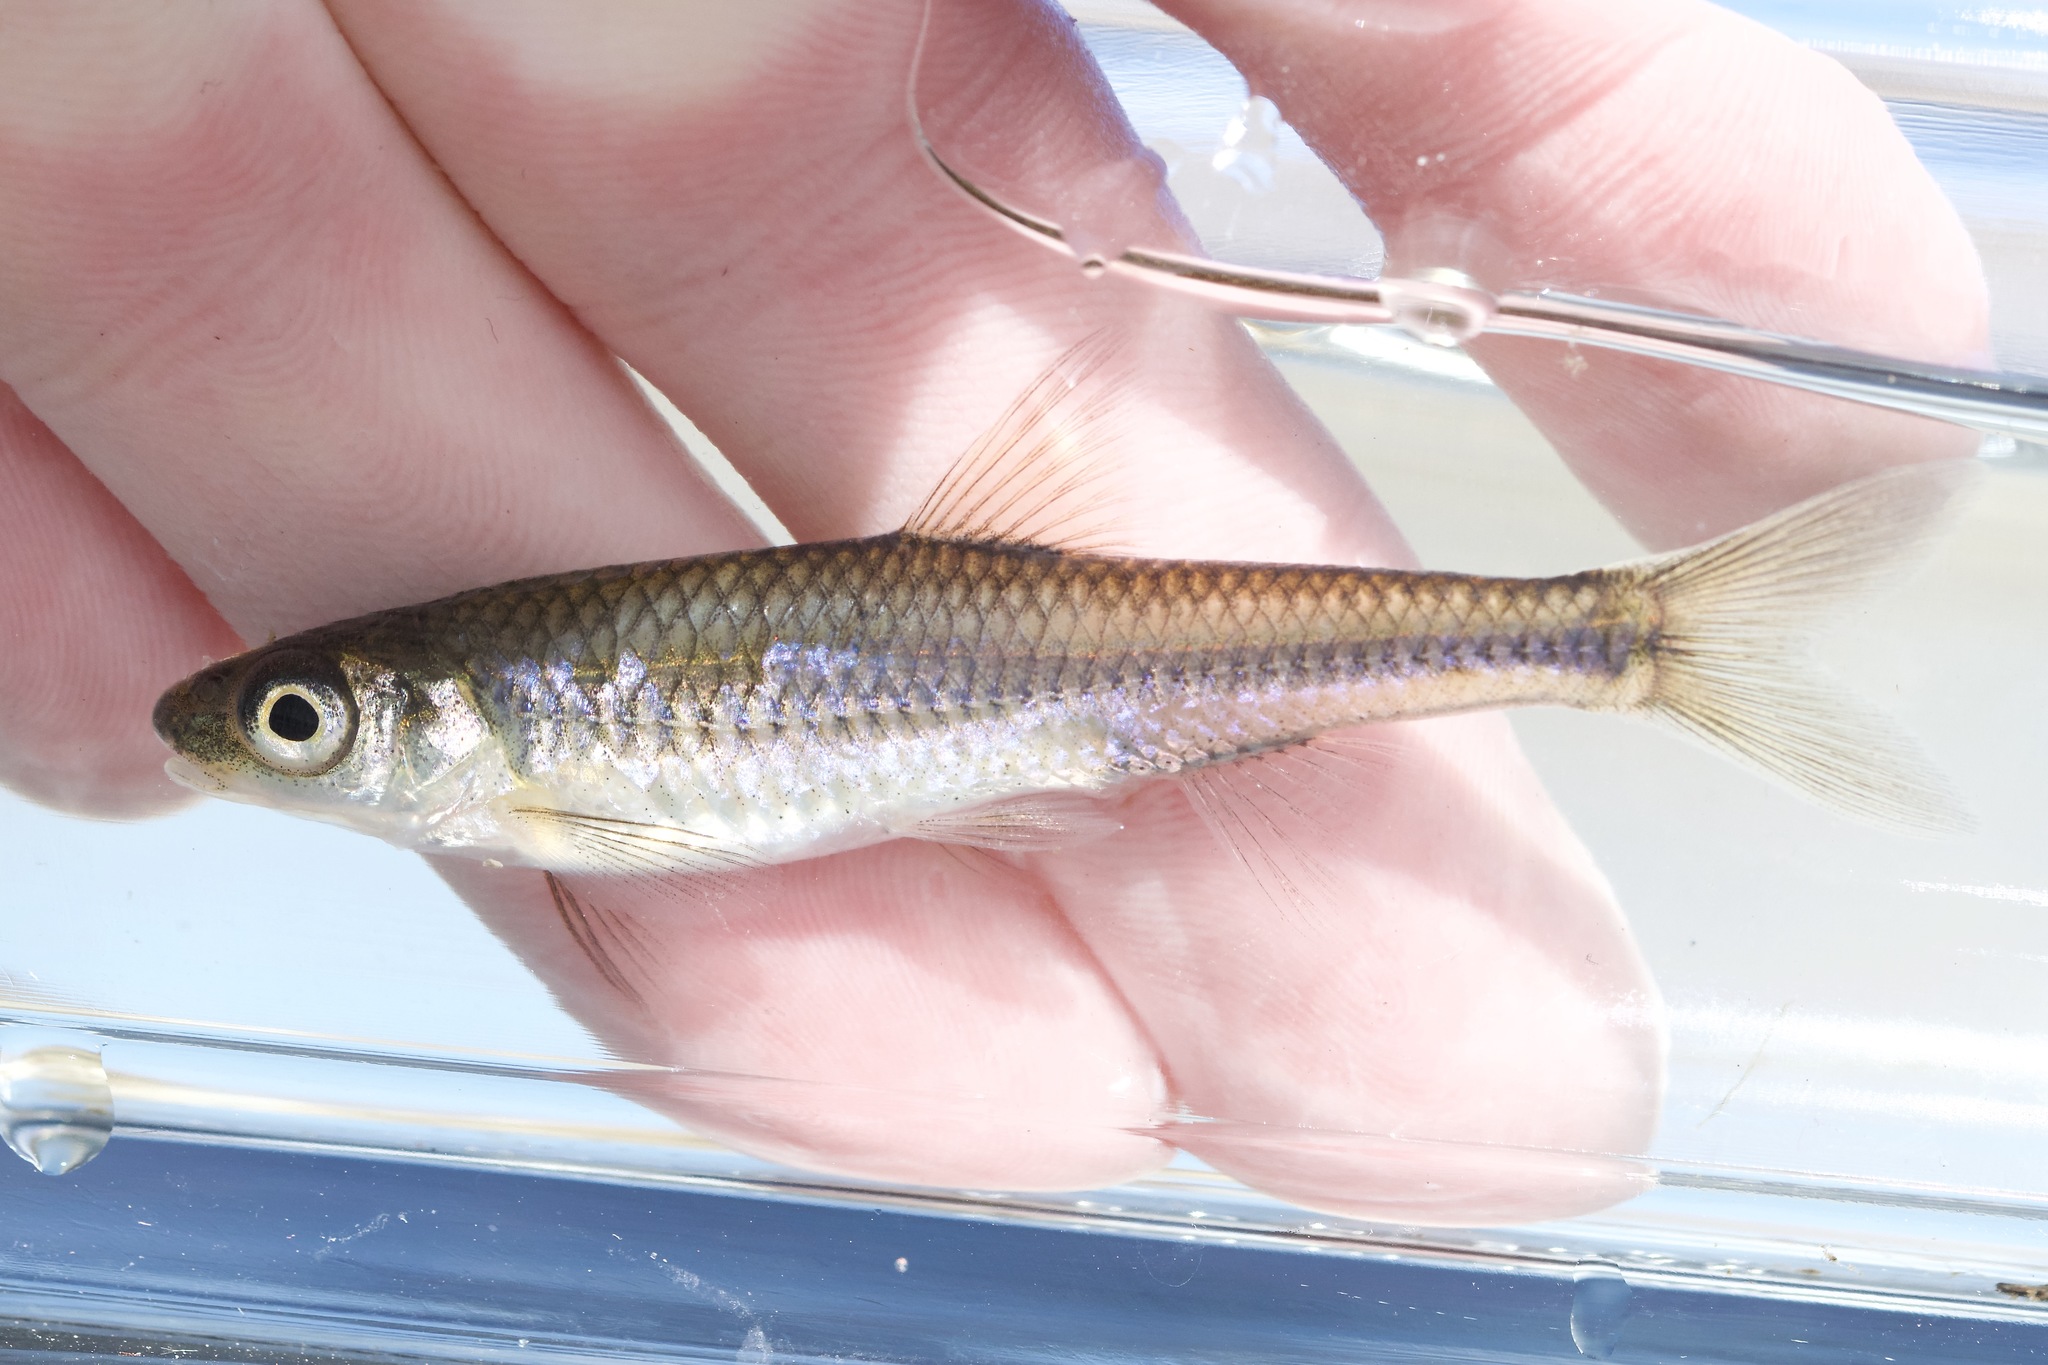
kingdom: Animalia
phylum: Chordata
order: Cypriniformes
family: Cyprinidae
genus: Notropis
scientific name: Notropis
